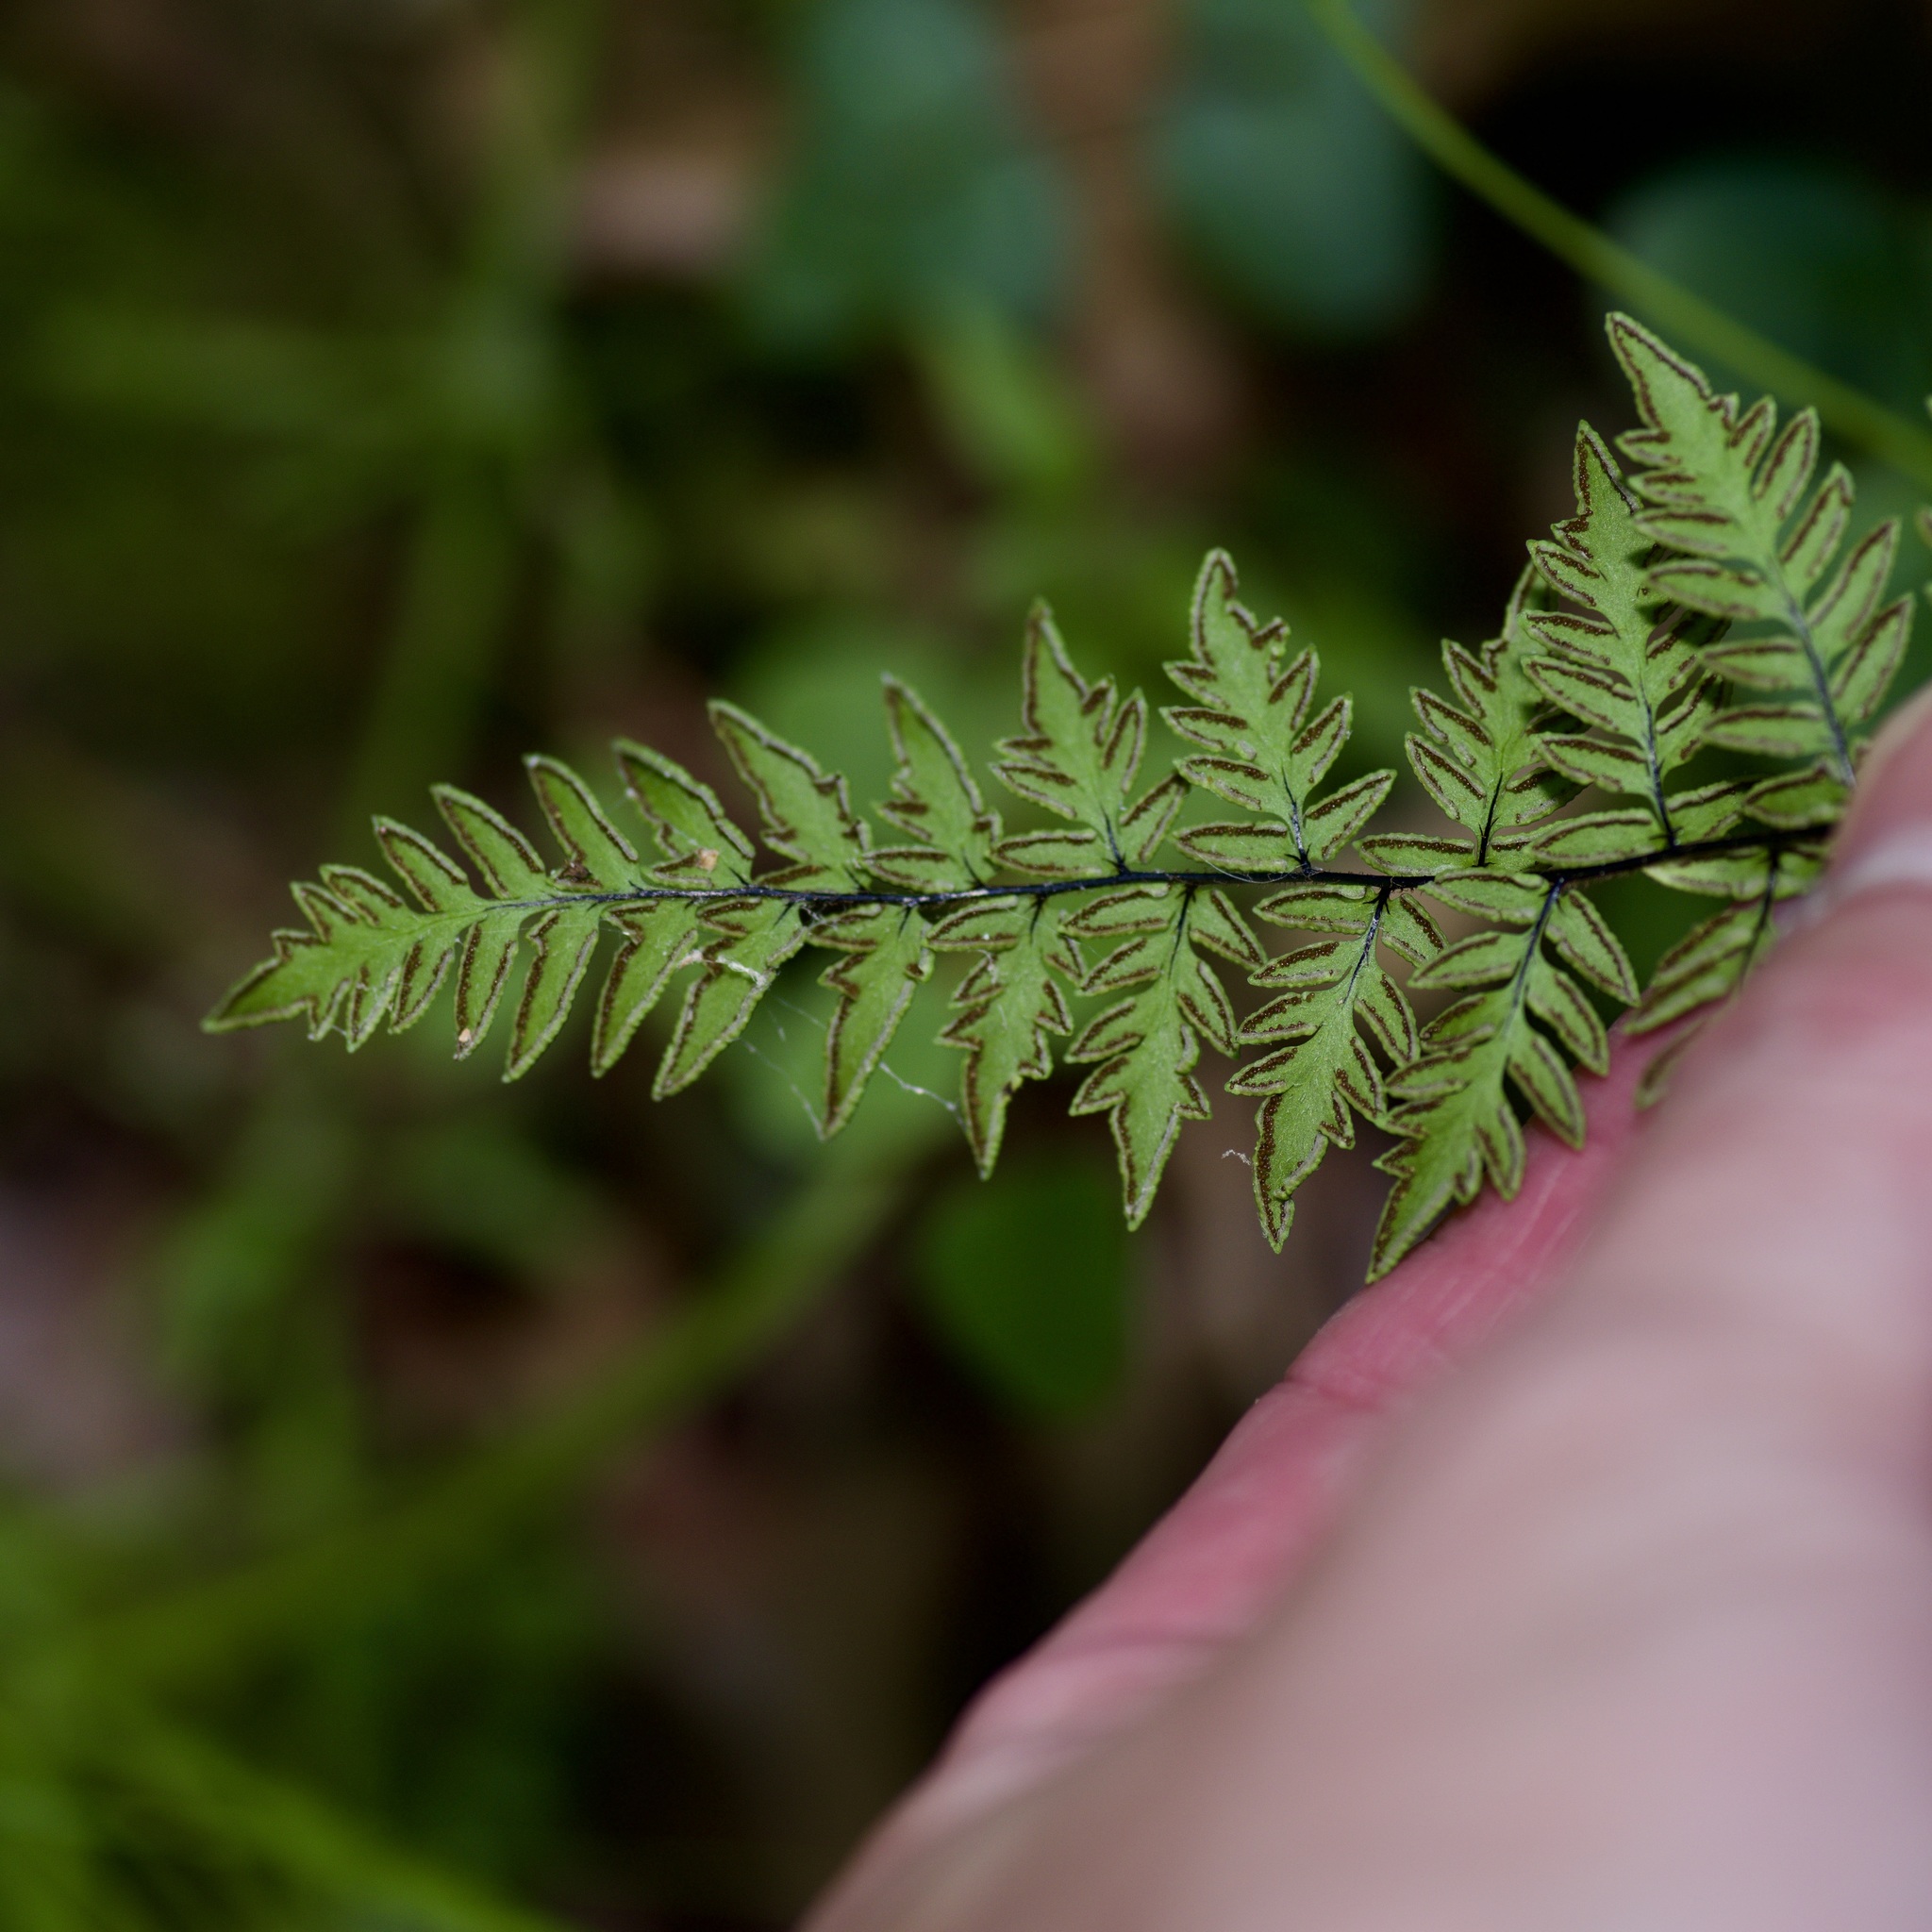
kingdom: Plantae
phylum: Tracheophyta
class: Polypodiopsida
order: Polypodiales
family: Pteridaceae
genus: Myriopteris
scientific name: Myriopteris alabamensis
